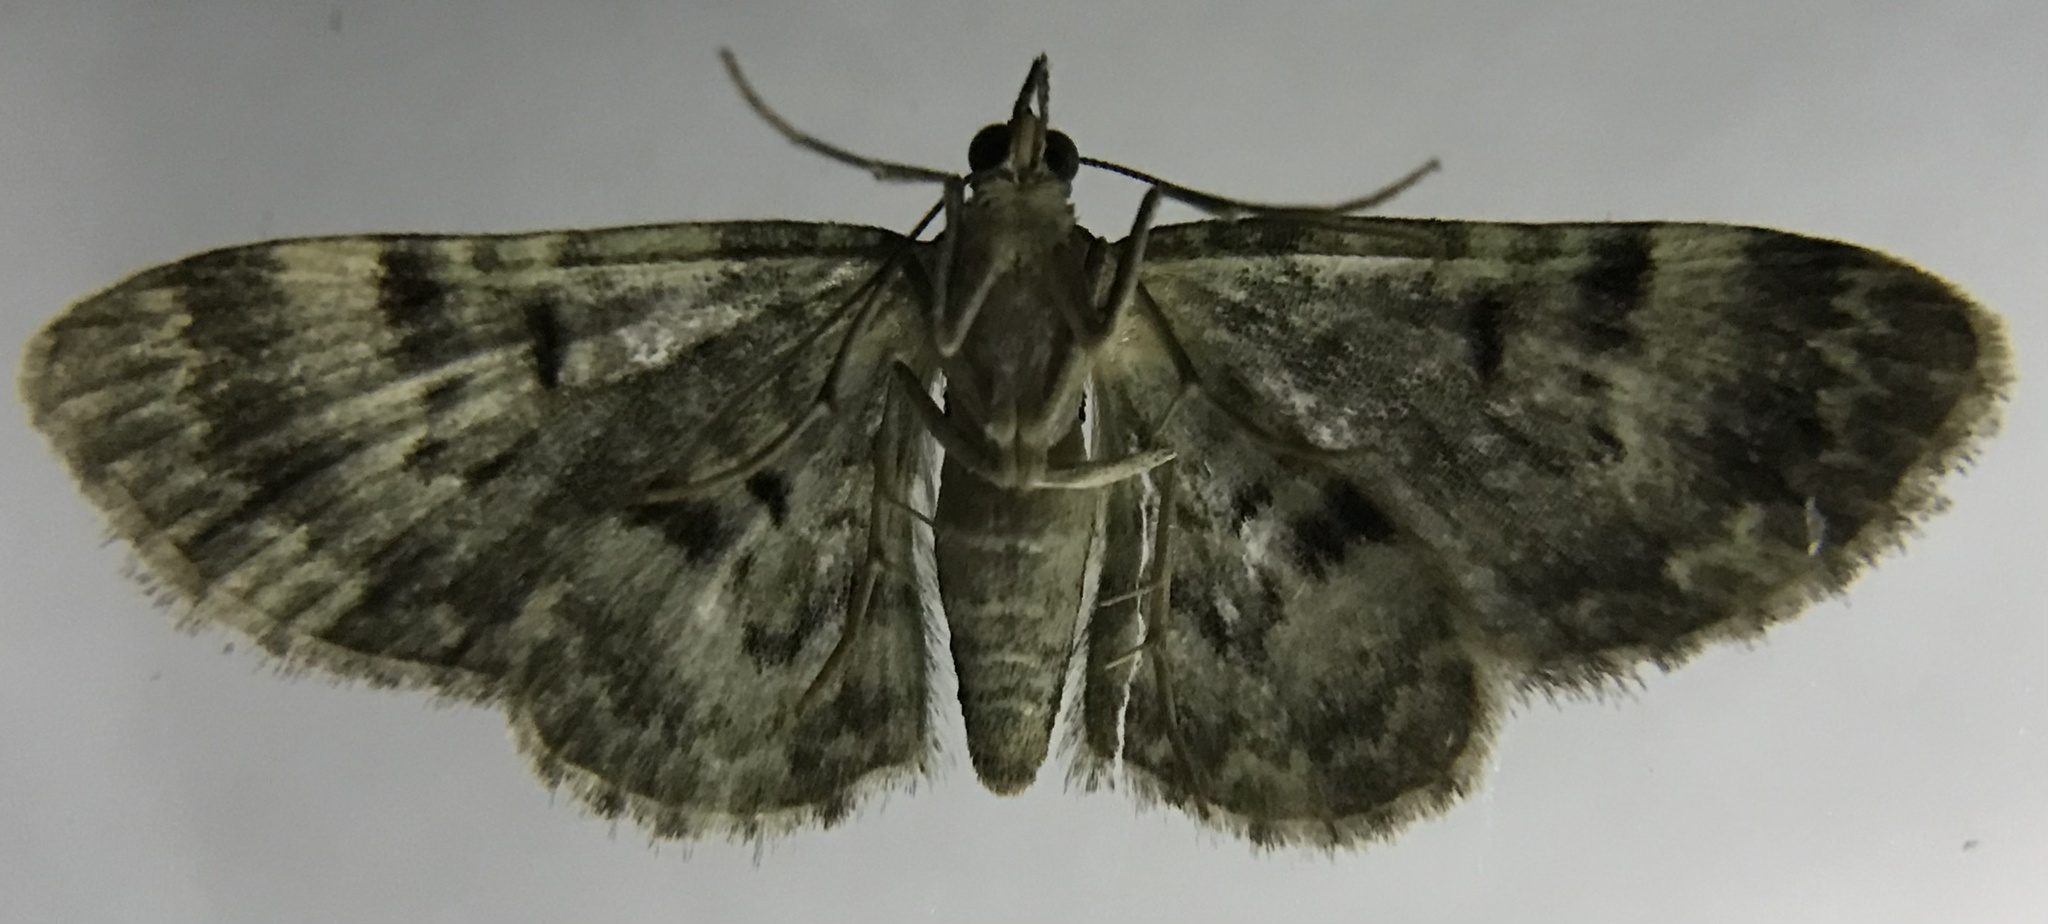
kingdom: Animalia
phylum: Arthropoda
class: Insecta
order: Lepidoptera
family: Geometridae
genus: Pasiphila
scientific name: Pasiphila rectangulata
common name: Green pug
